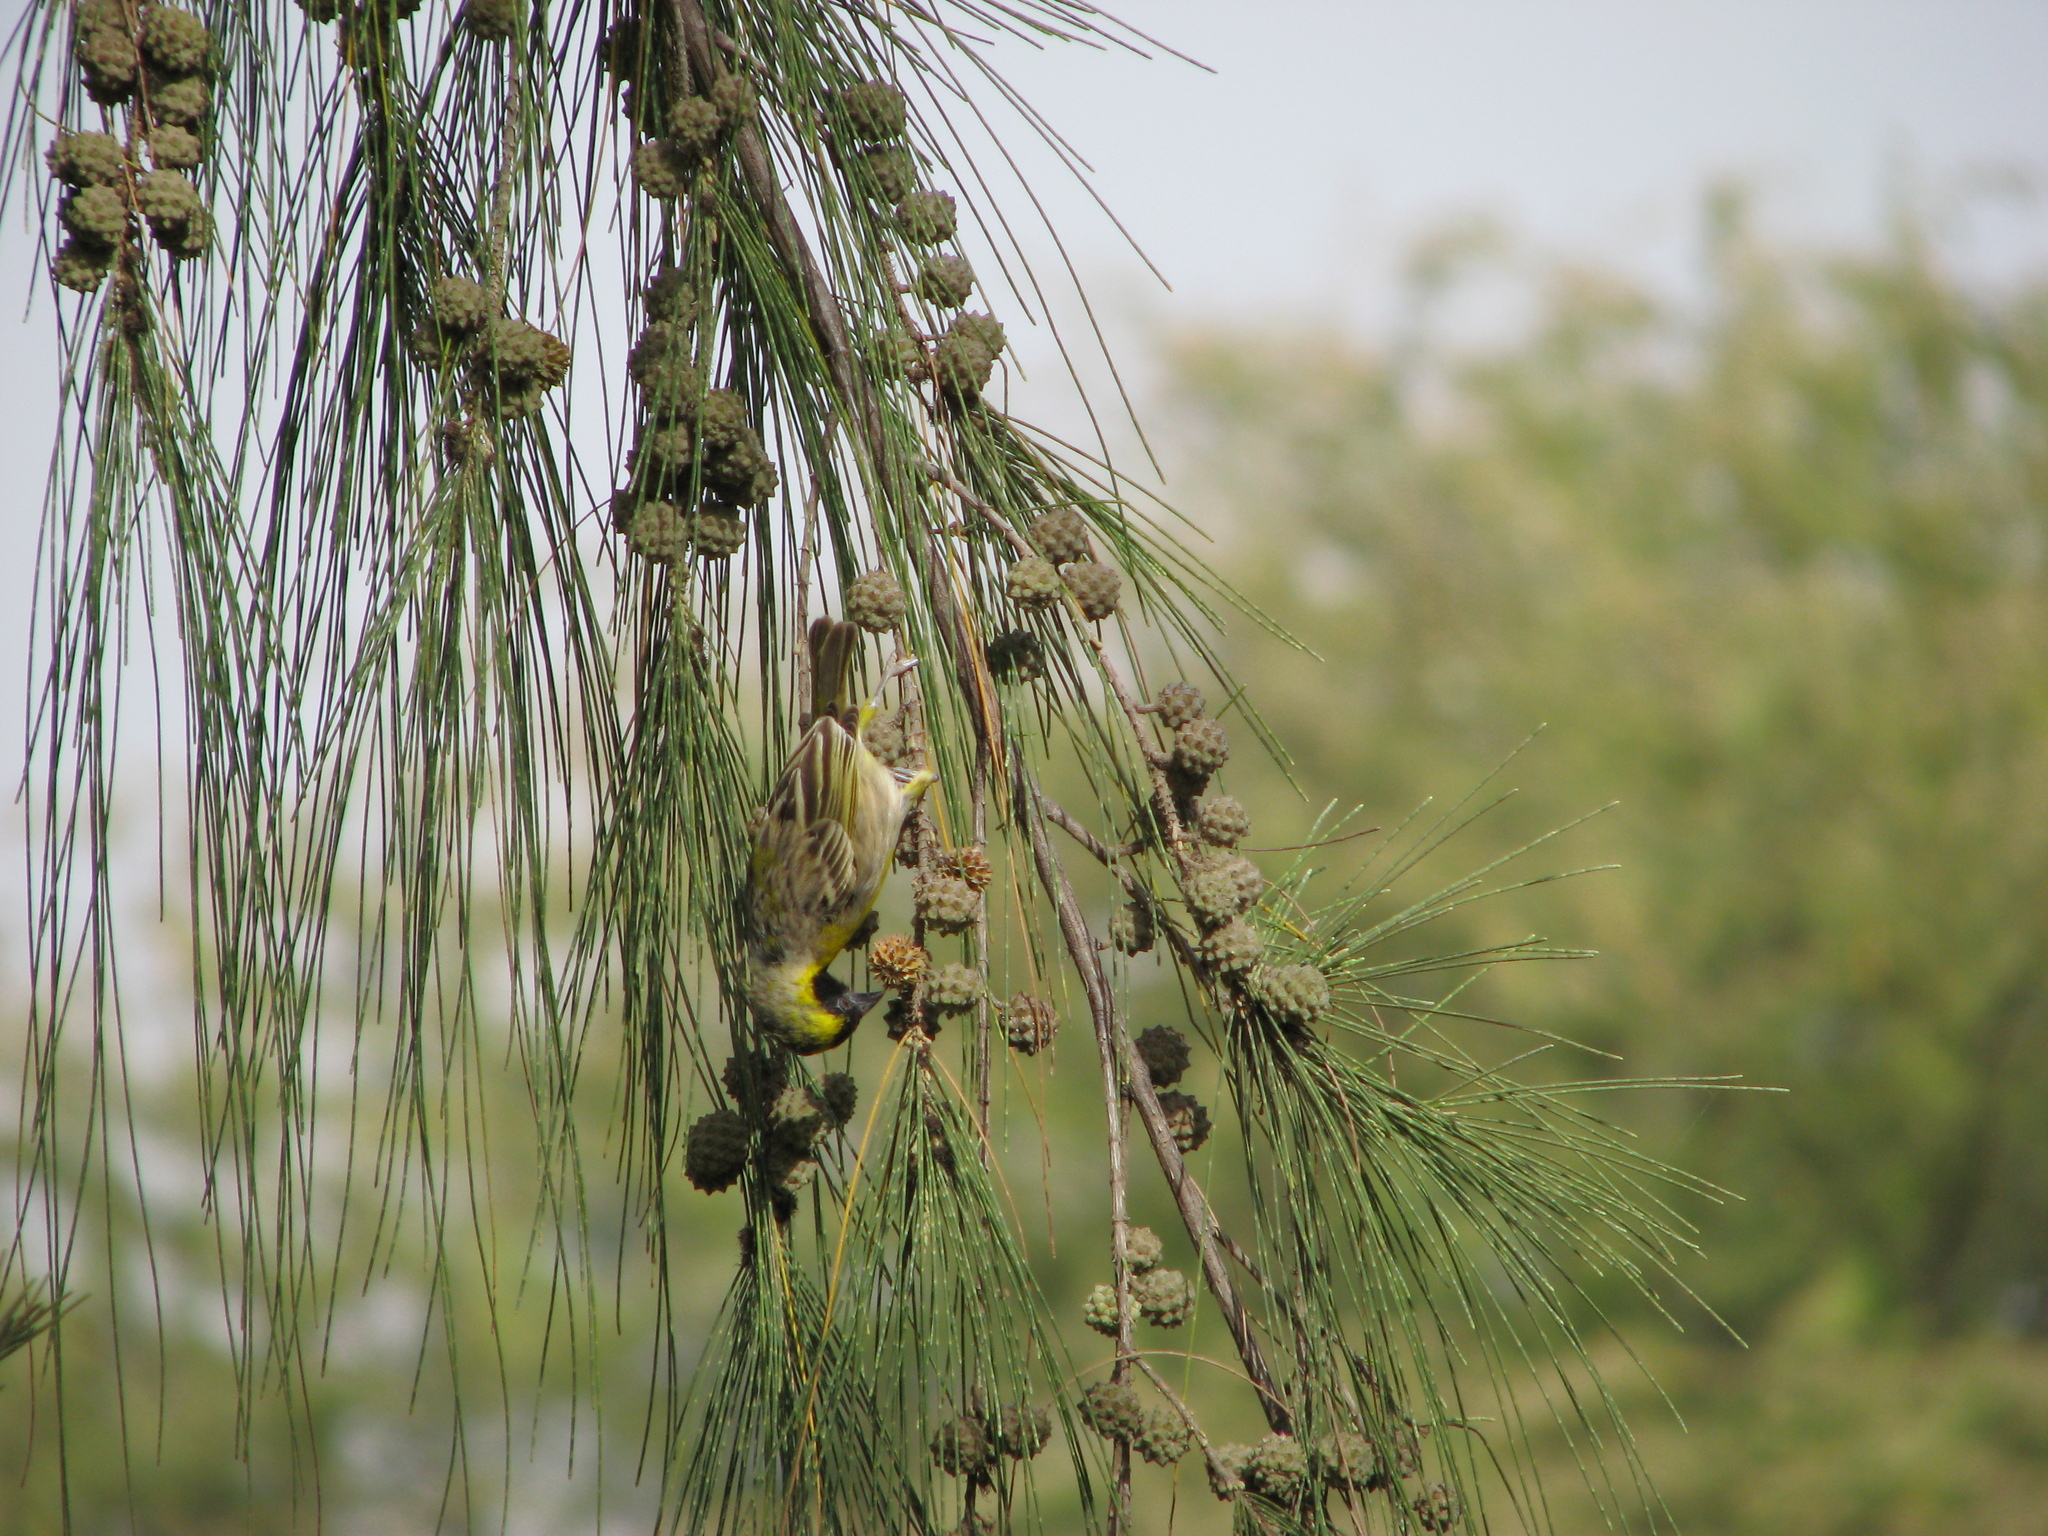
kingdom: Animalia
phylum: Chordata
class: Aves
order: Passeriformes
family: Ploceidae
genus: Ploceus
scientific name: Ploceus luteolus
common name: Little weaver
